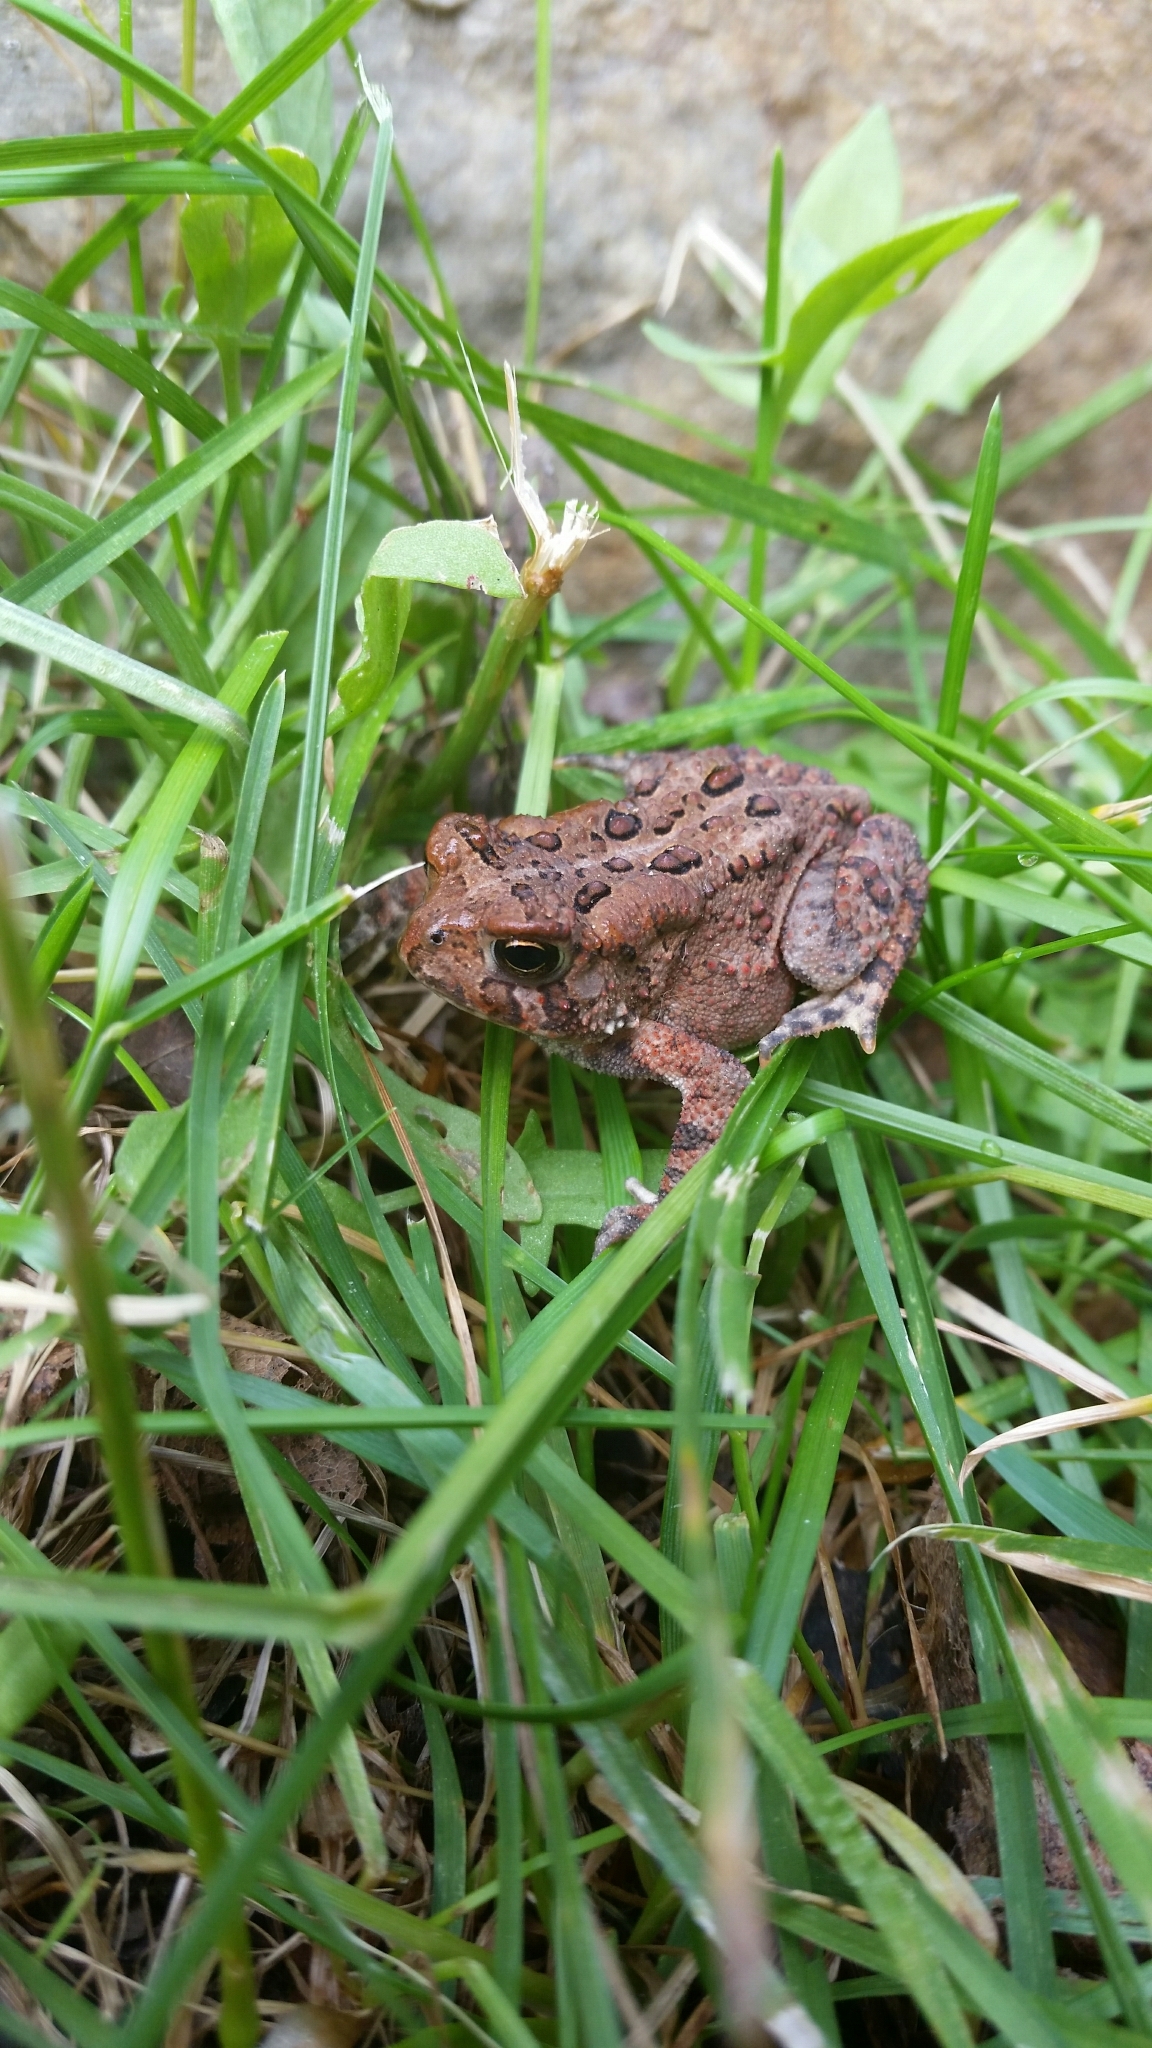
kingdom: Animalia
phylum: Chordata
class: Amphibia
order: Anura
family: Bufonidae
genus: Anaxyrus
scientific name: Anaxyrus americanus
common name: American toad
